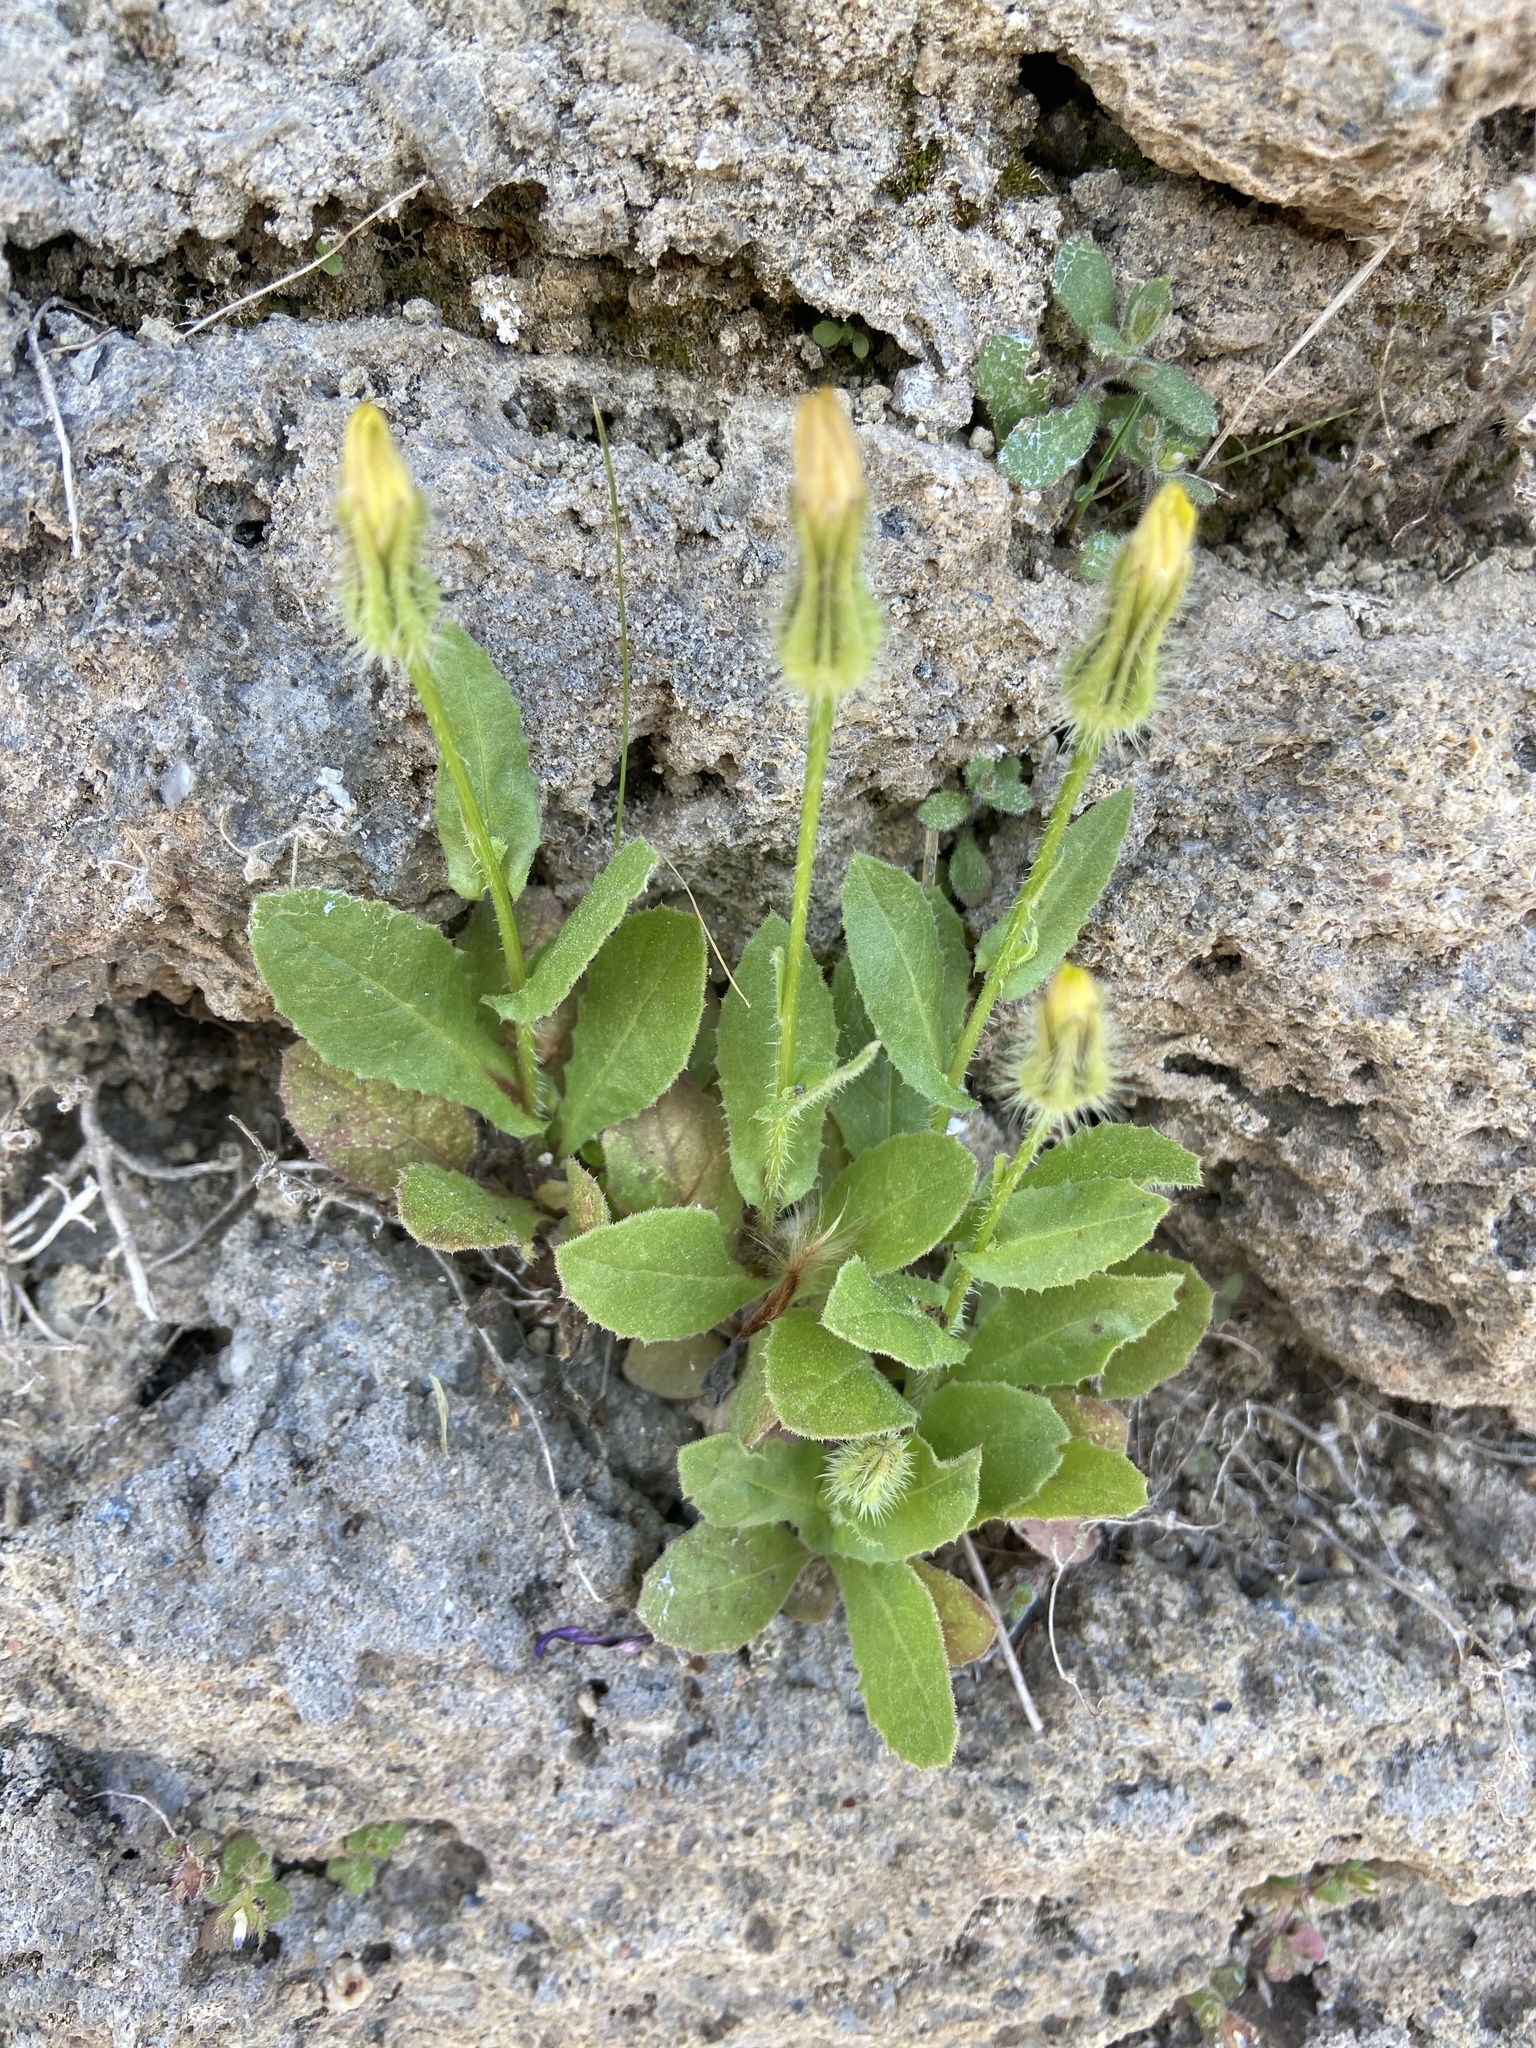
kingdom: Plantae
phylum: Tracheophyta
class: Magnoliopsida
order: Asterales
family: Asteraceae
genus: Urospermum
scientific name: Urospermum picroides
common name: False hawkbit
